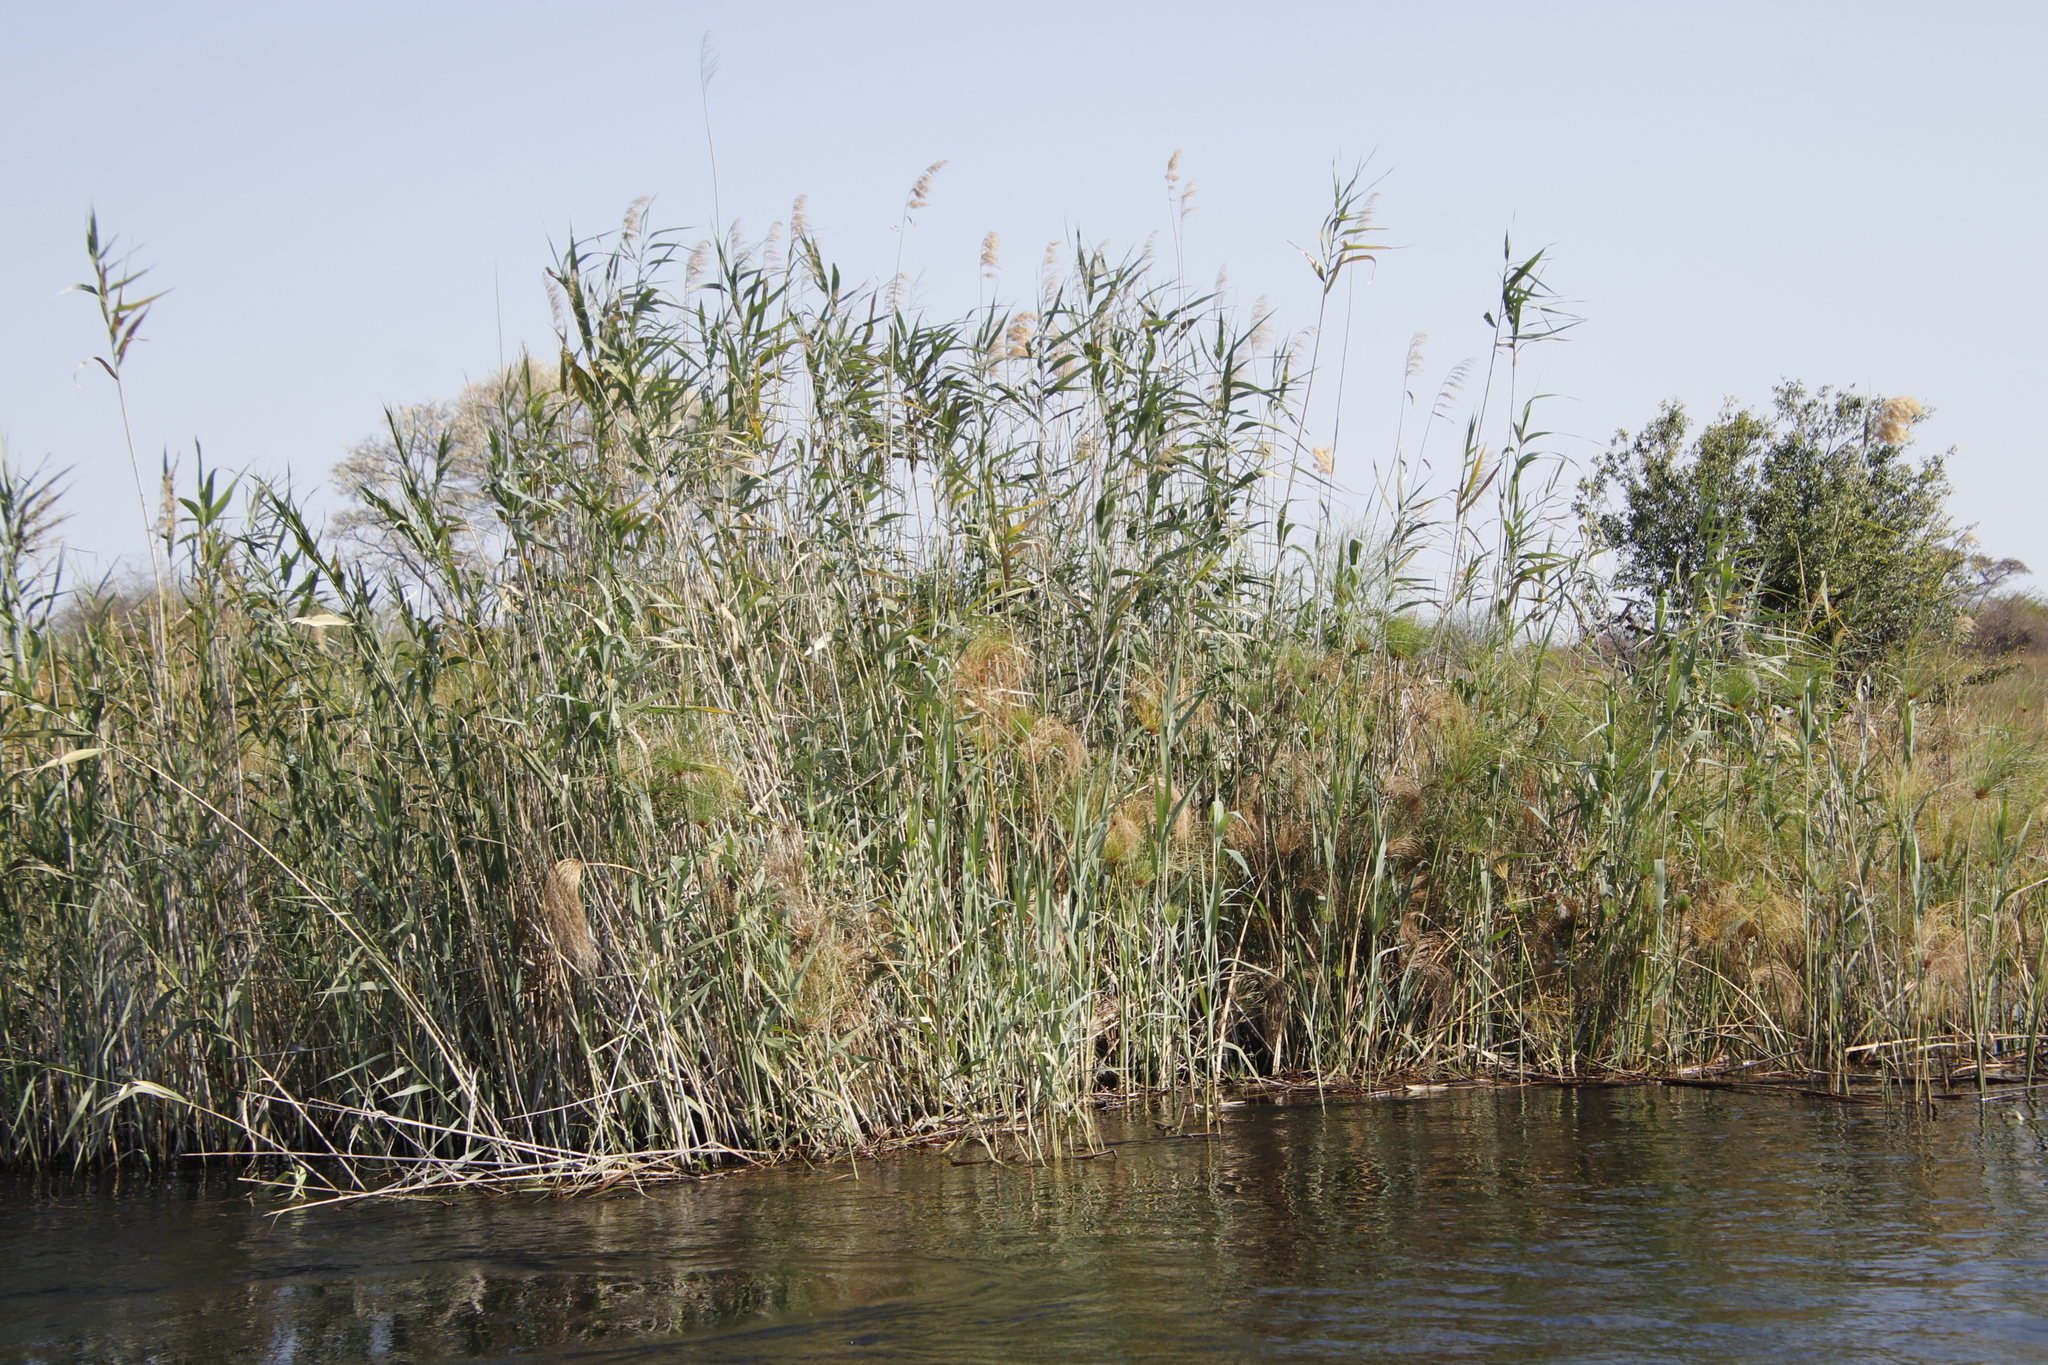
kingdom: Plantae
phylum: Tracheophyta
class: Liliopsida
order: Poales
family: Poaceae
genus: Phragmites
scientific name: Phragmites australis
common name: Common reed
